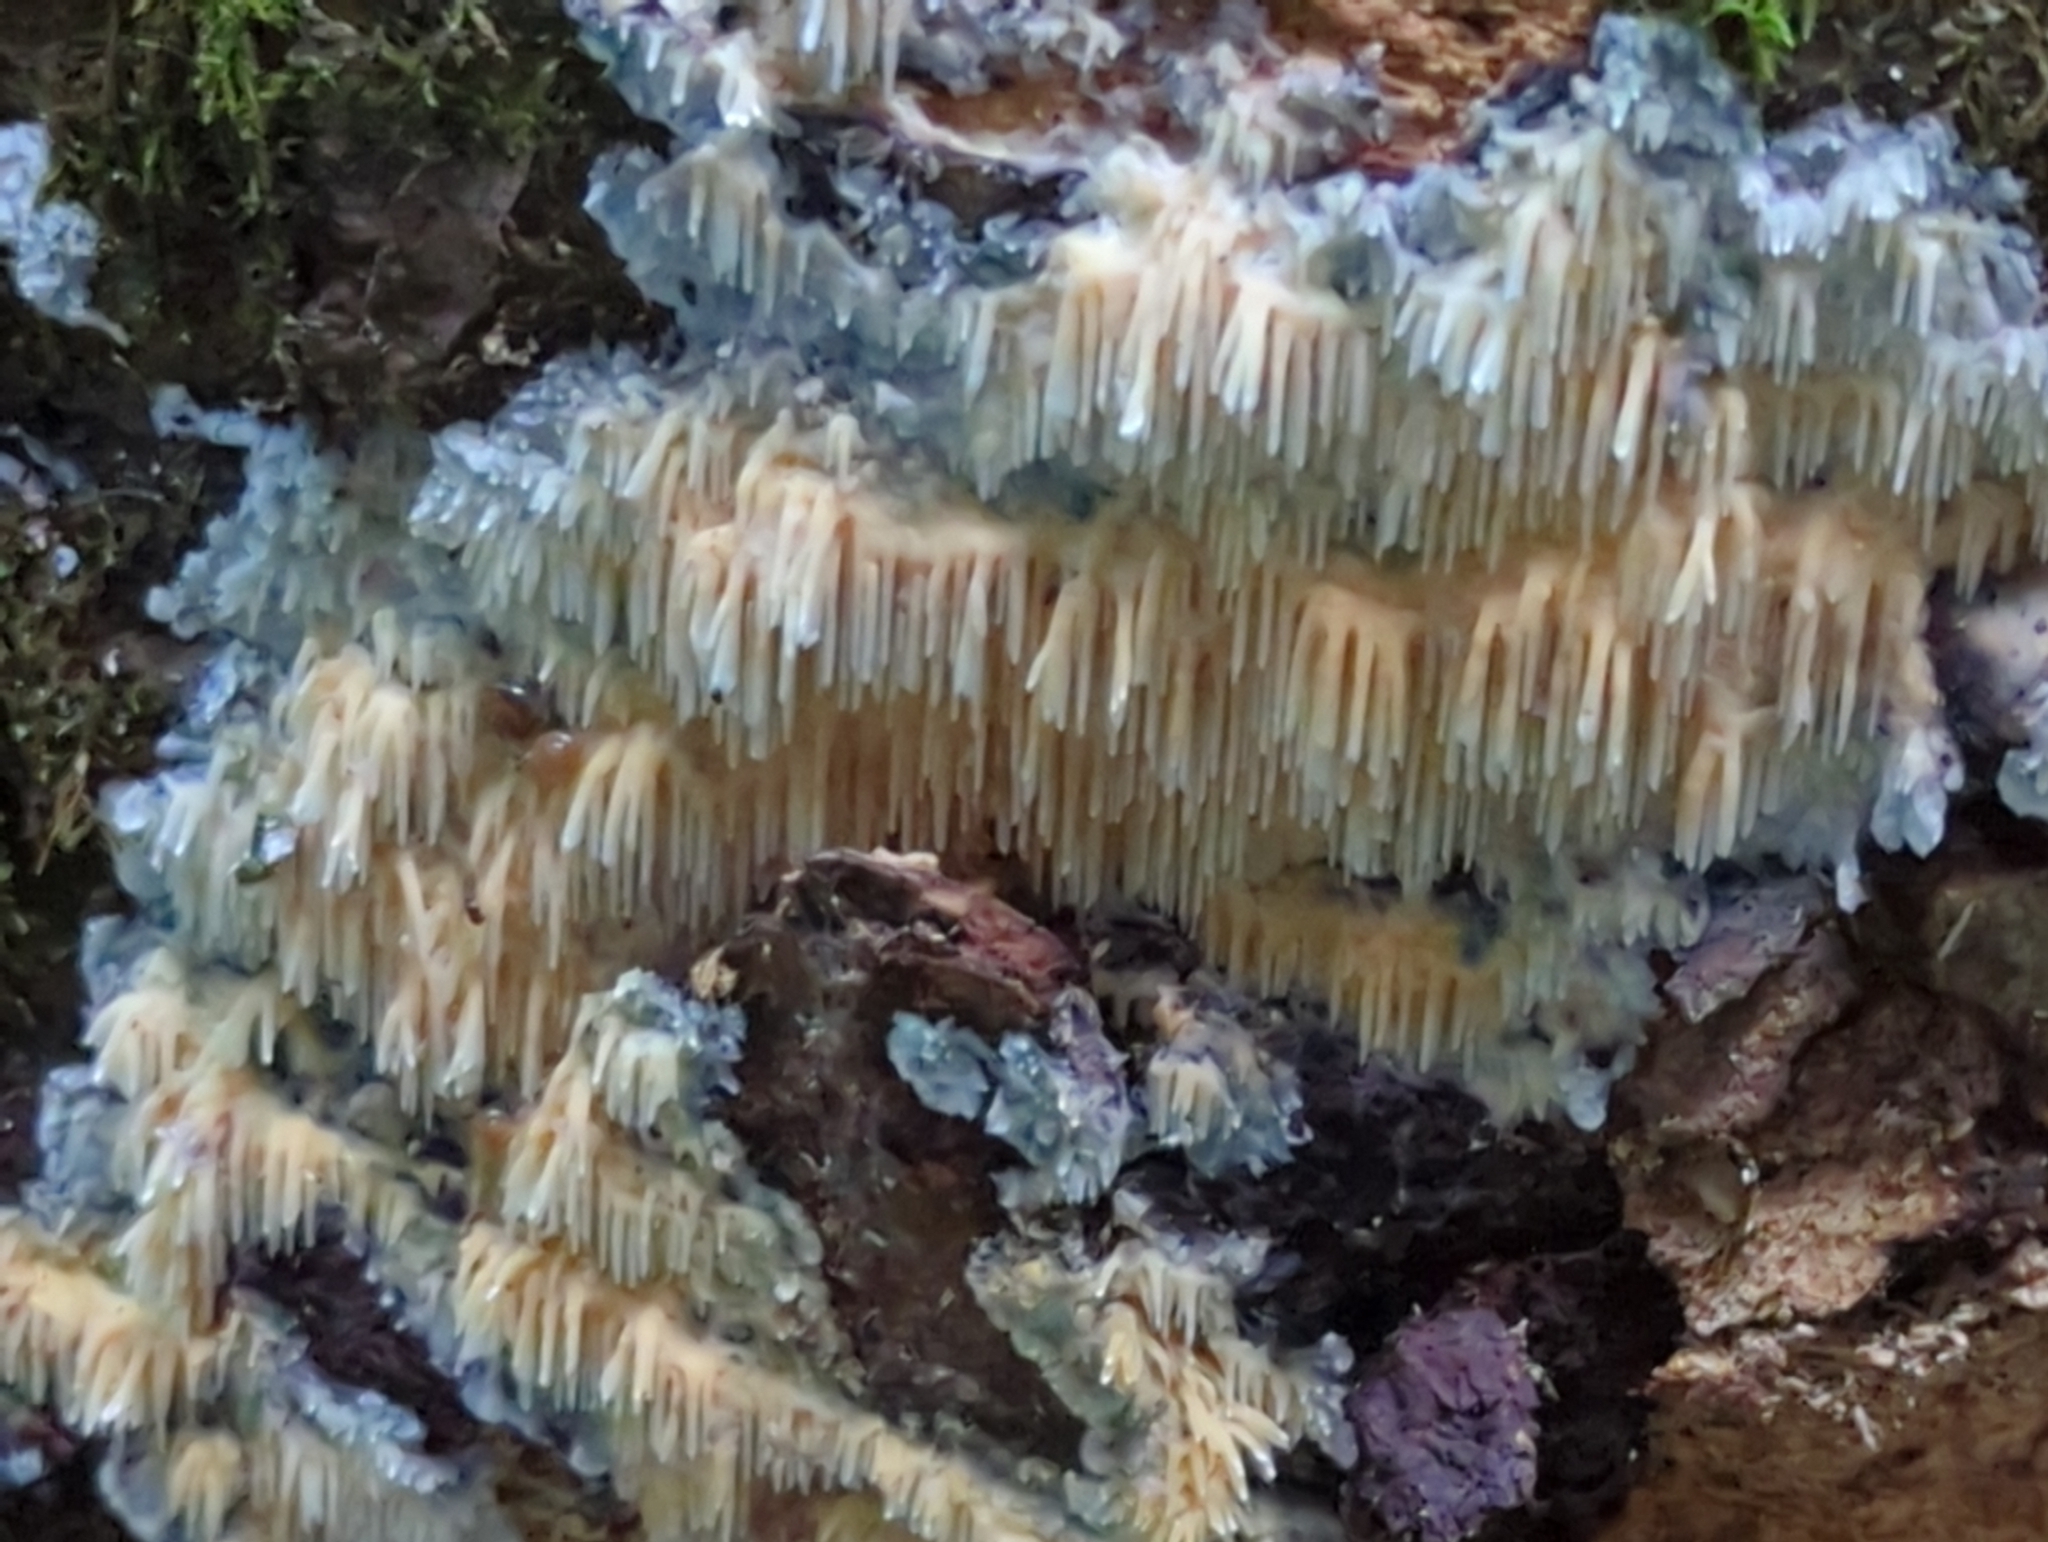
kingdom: Fungi
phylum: Basidiomycota
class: Agaricomycetes
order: Agaricales
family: Radulomycetaceae
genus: Radulomyces
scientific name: Radulomyces copelandii
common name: Asian beauty
